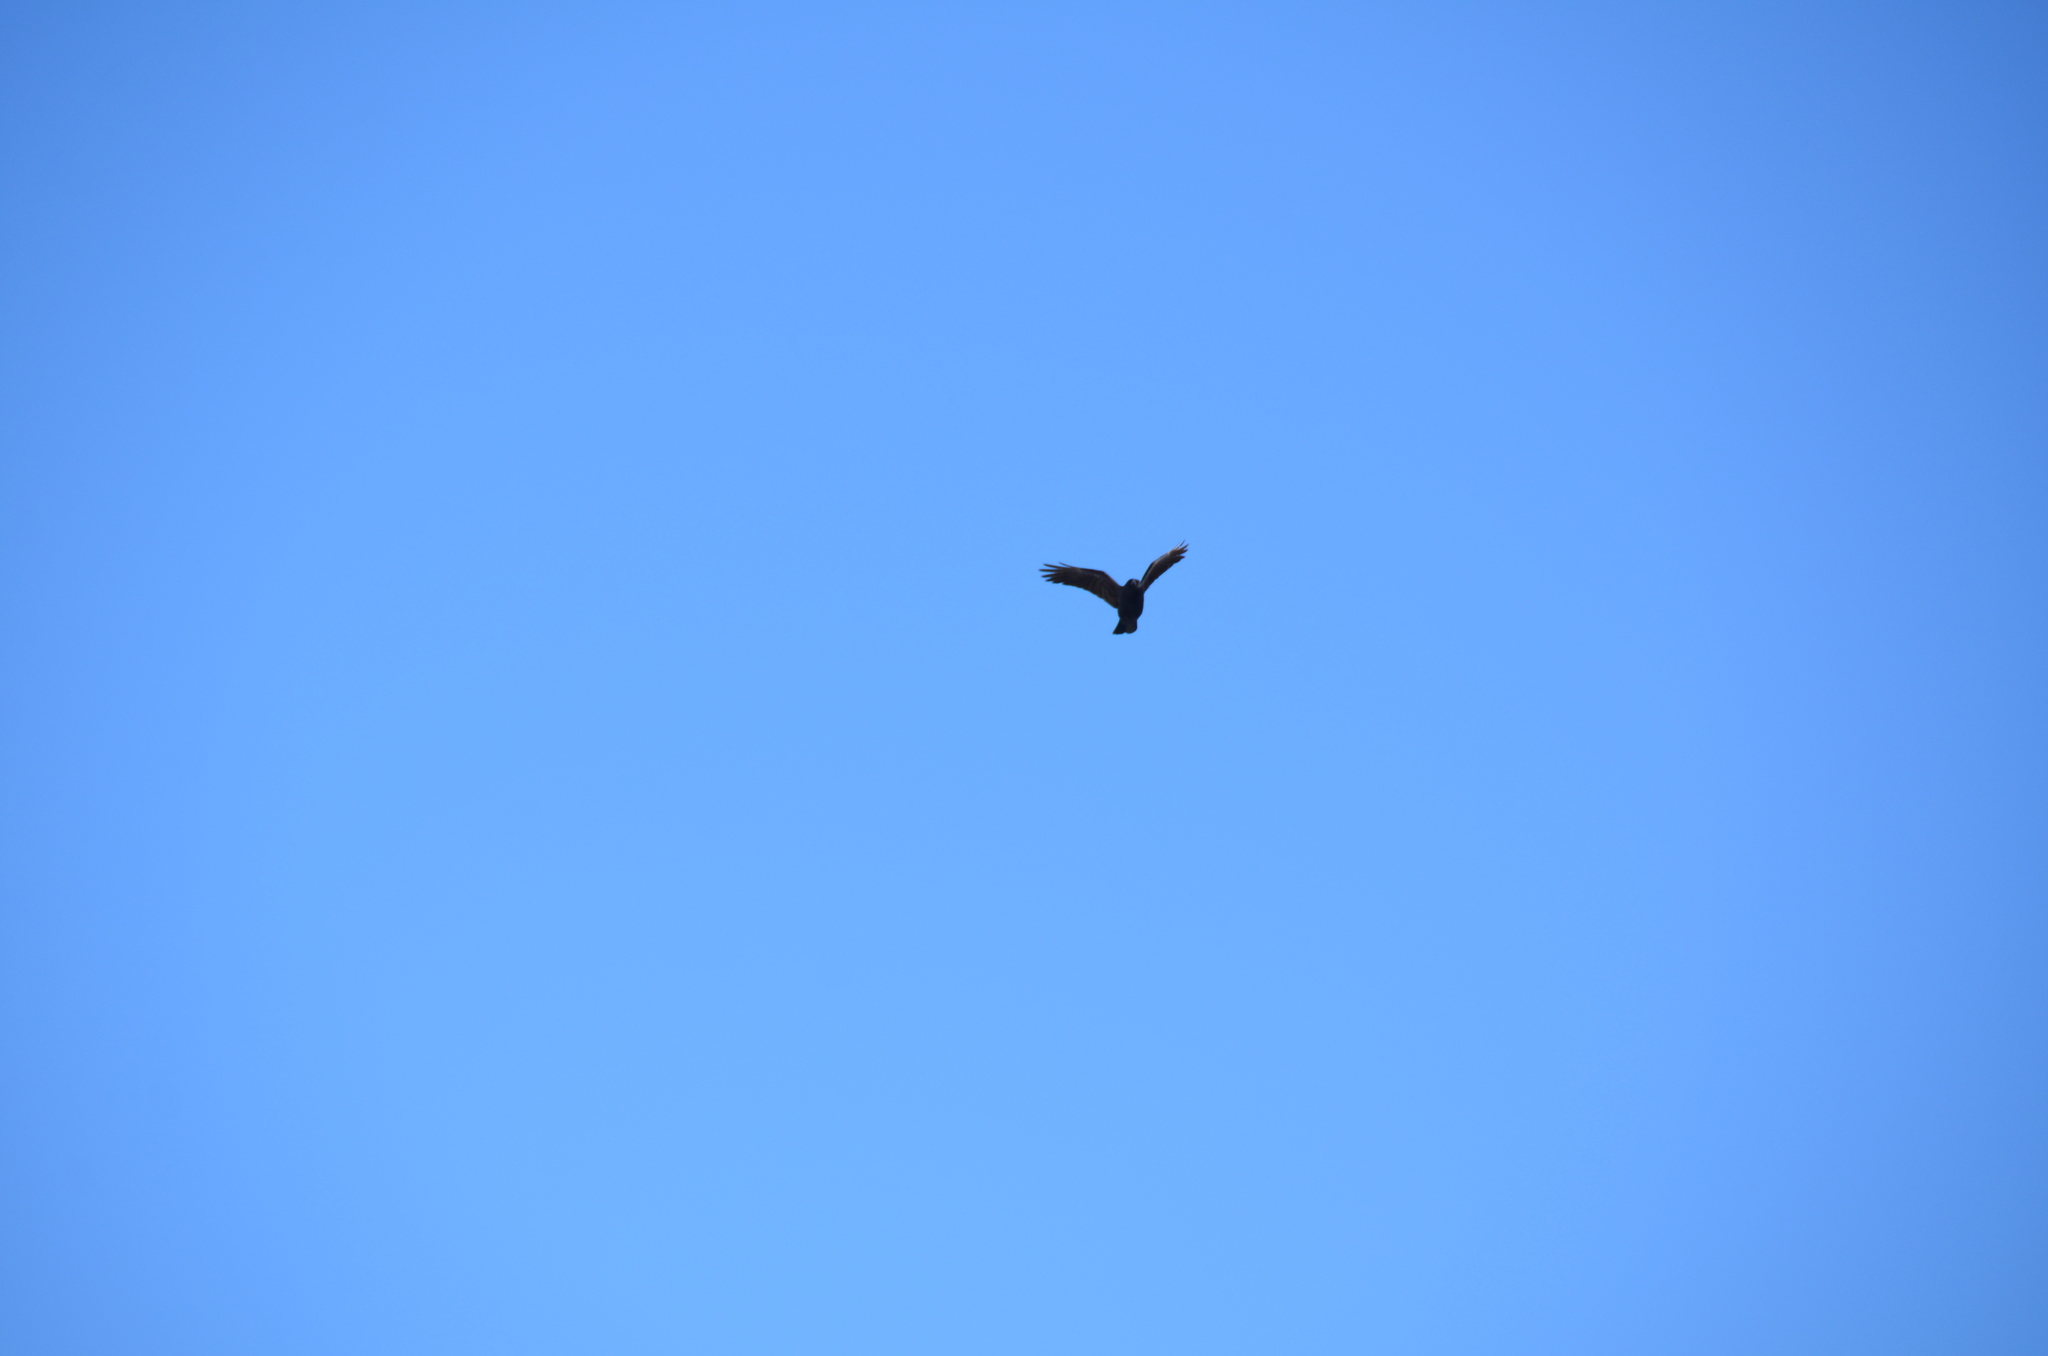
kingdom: Animalia
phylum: Chordata
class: Aves
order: Passeriformes
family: Corvidae
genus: Corvus
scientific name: Corvus brachyrhynchos
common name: American crow
